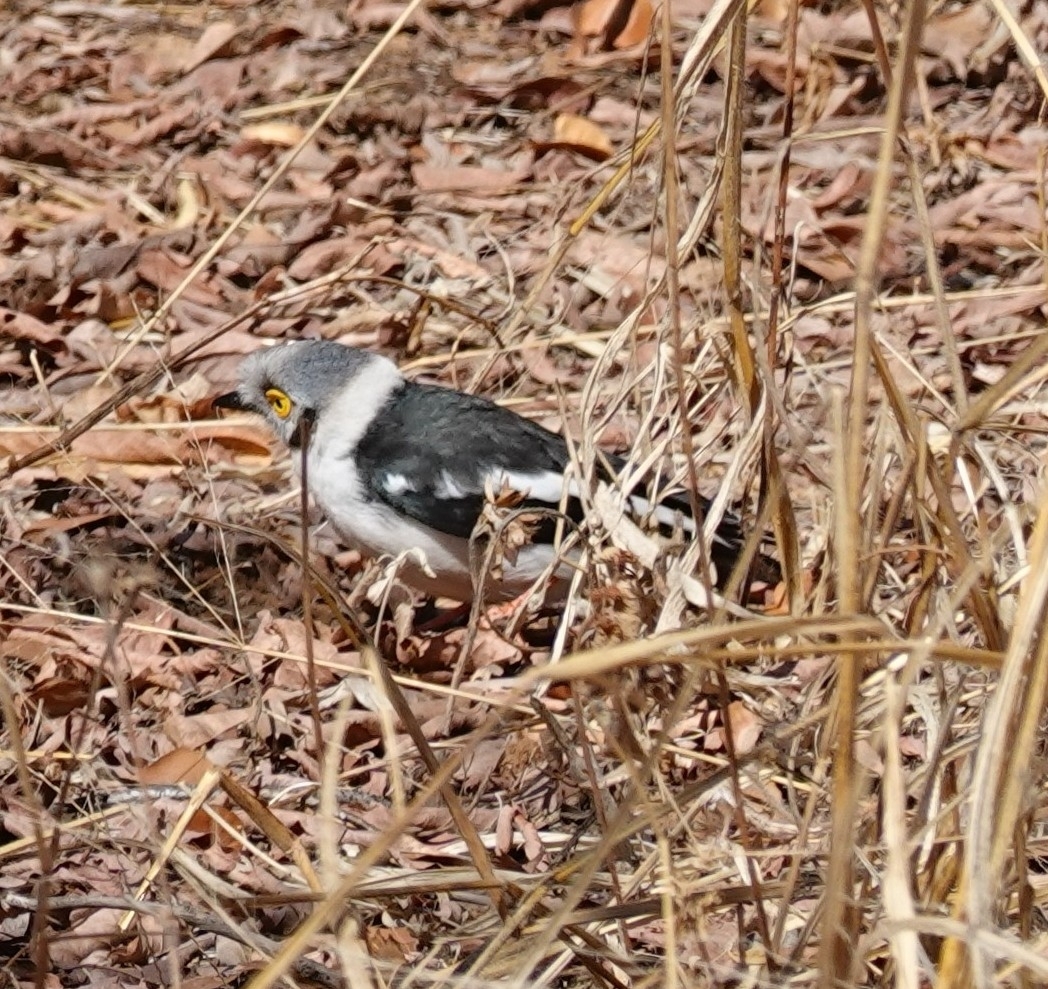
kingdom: Animalia
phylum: Chordata
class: Aves
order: Passeriformes
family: Prionopidae
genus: Prionops
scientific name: Prionops plumatus
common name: White-crested helmetshrike
